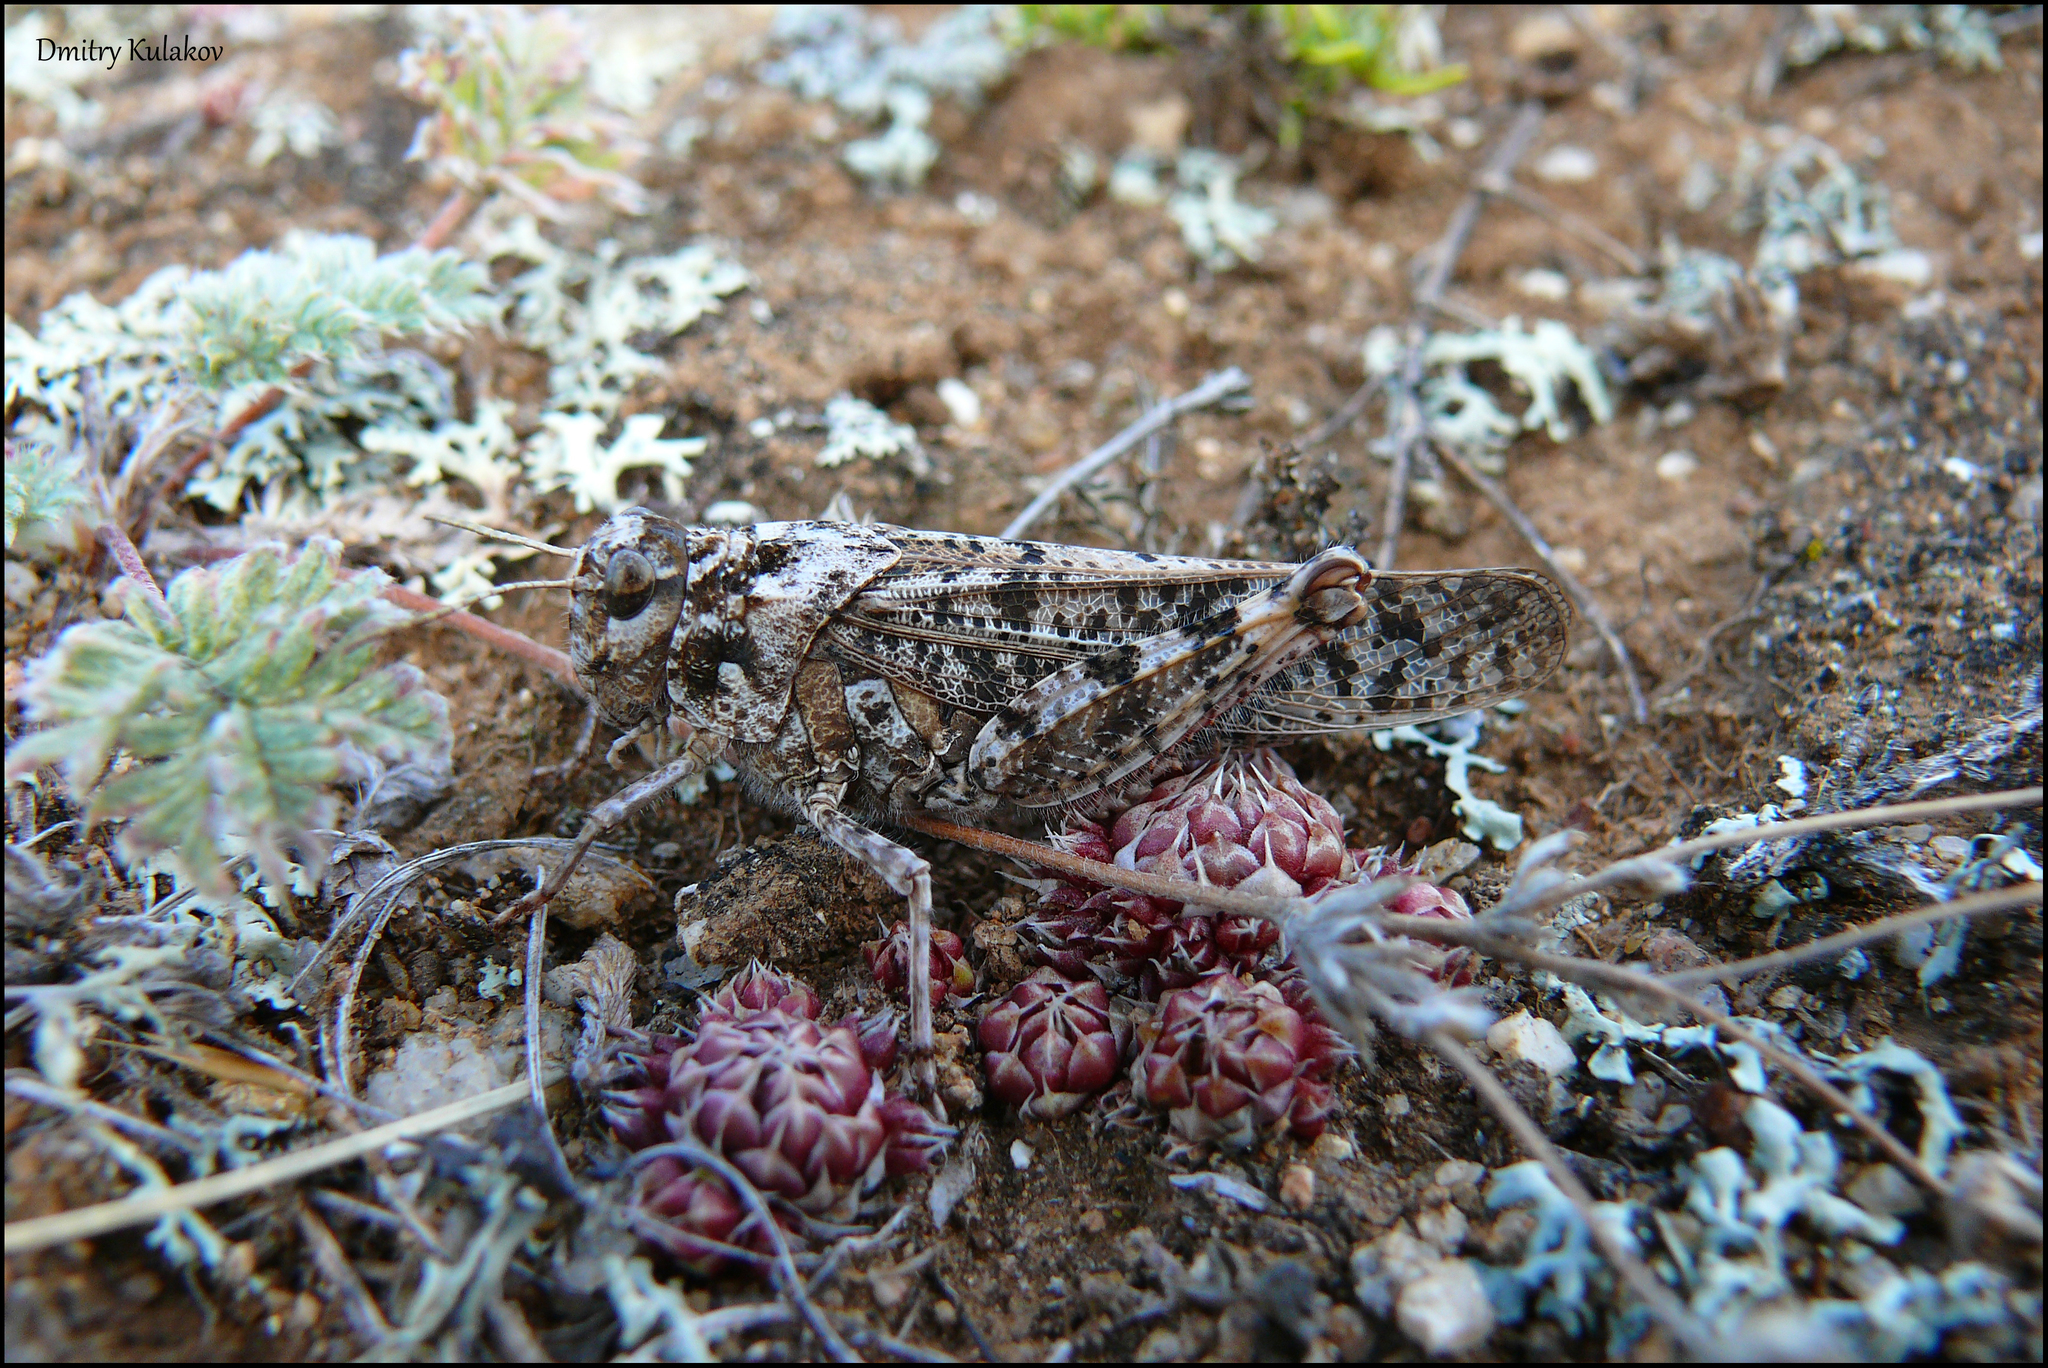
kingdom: Animalia
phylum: Arthropoda
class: Insecta
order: Orthoptera
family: Acrididae
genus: Angaracris
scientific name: Angaracris barabensis
